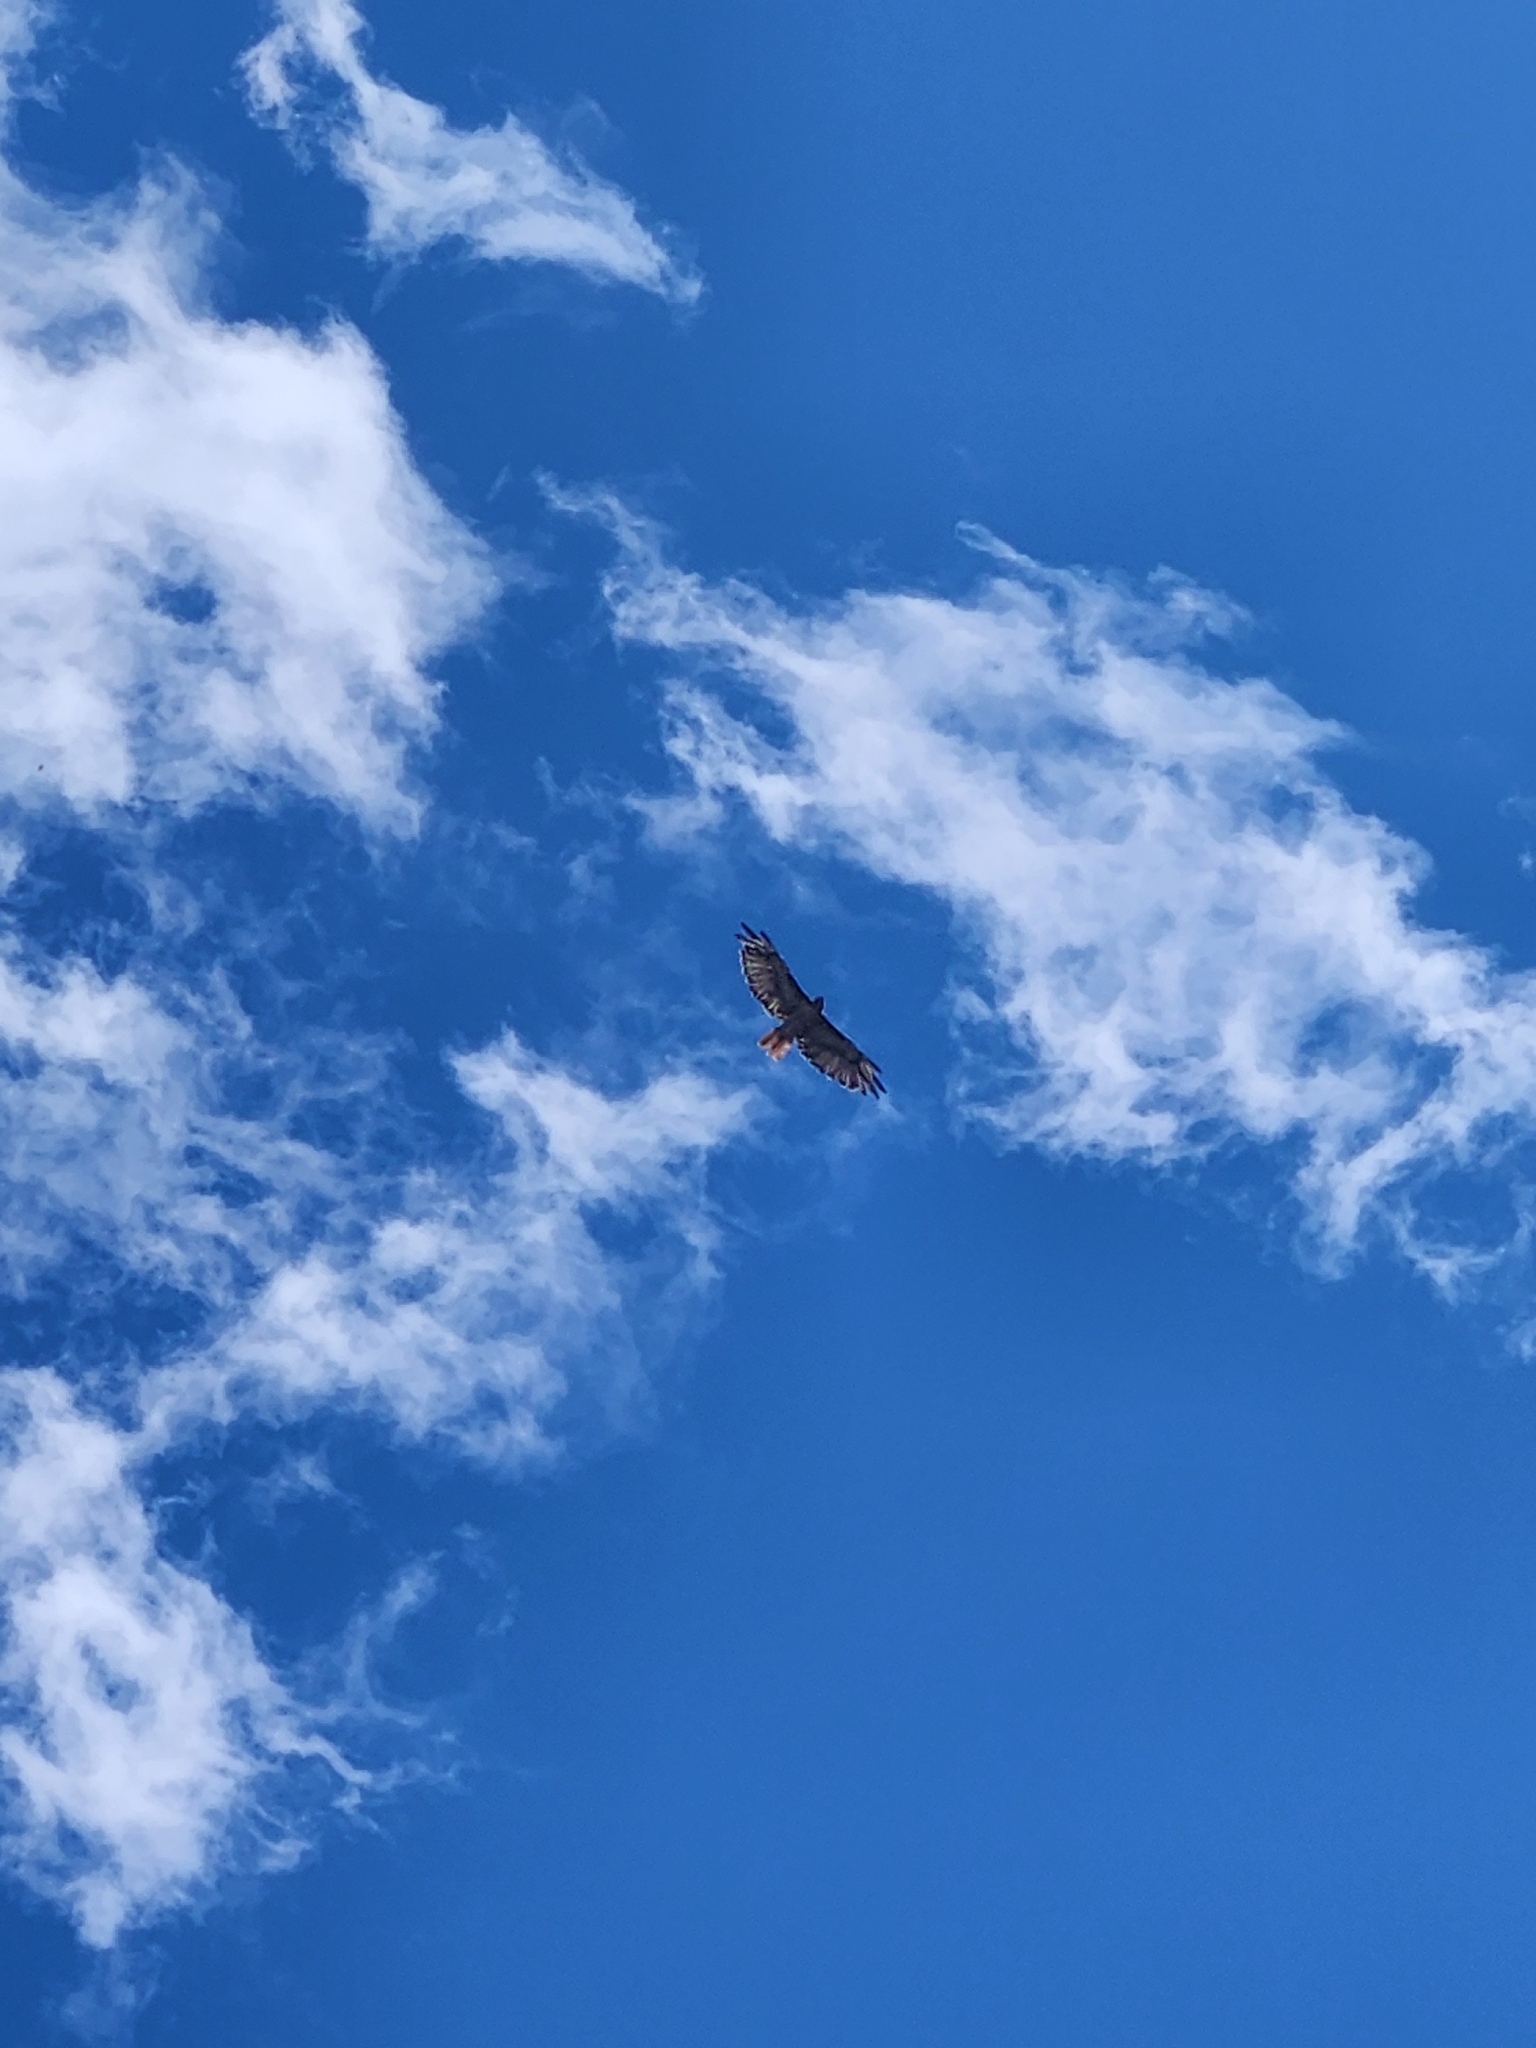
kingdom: Animalia
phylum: Chordata
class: Aves
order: Accipitriformes
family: Accipitridae
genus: Buteo
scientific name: Buteo jamaicensis
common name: Red-tailed hawk
